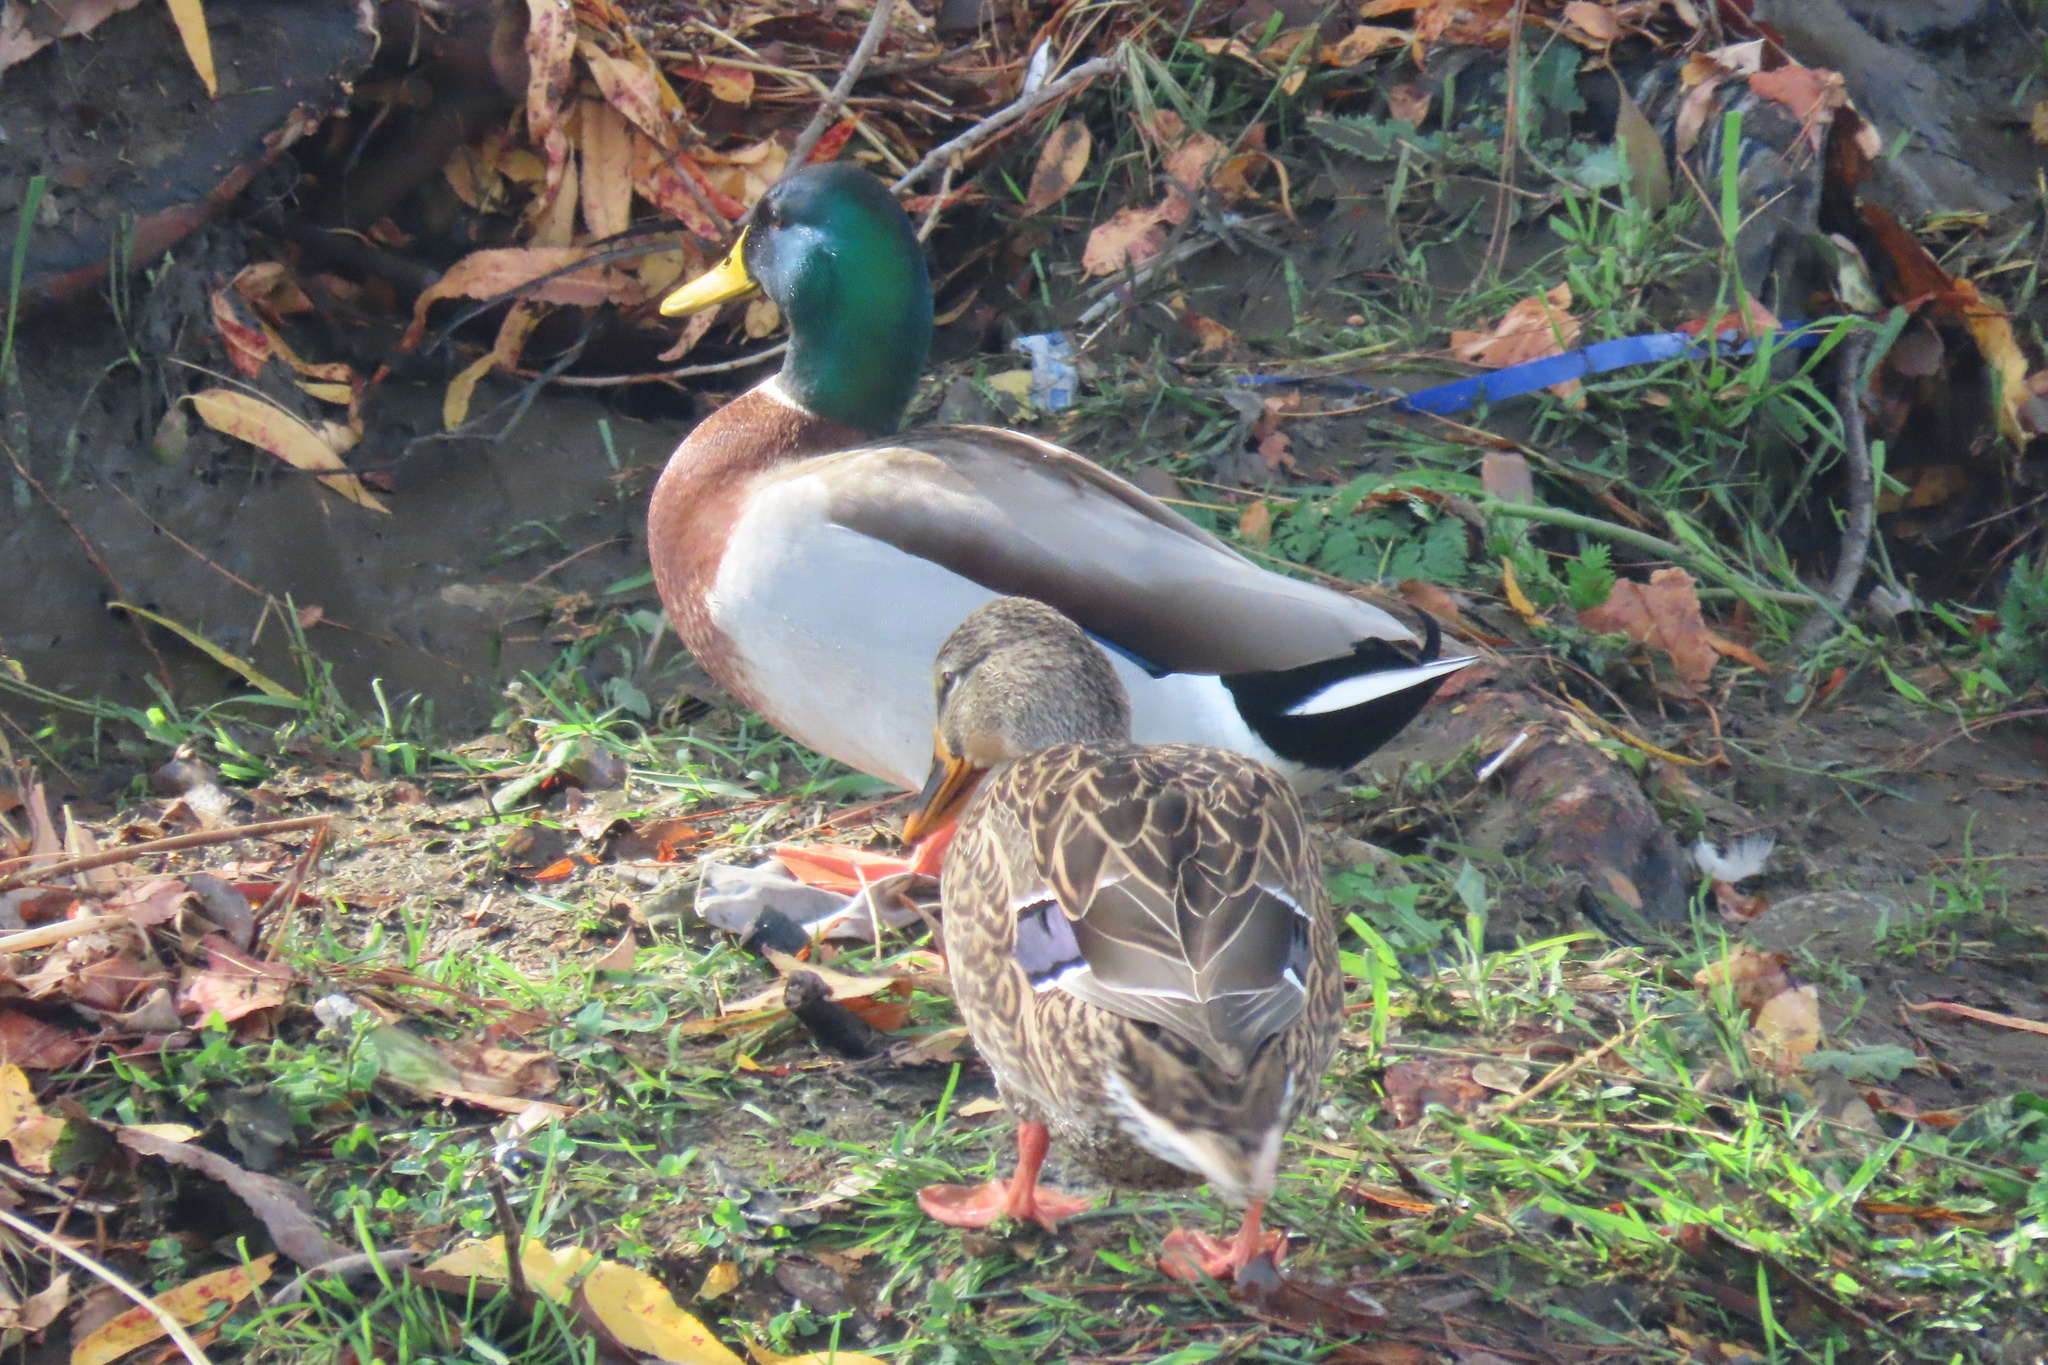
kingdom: Animalia
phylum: Chordata
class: Aves
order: Anseriformes
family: Anatidae
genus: Anas
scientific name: Anas platyrhynchos
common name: Mallard
